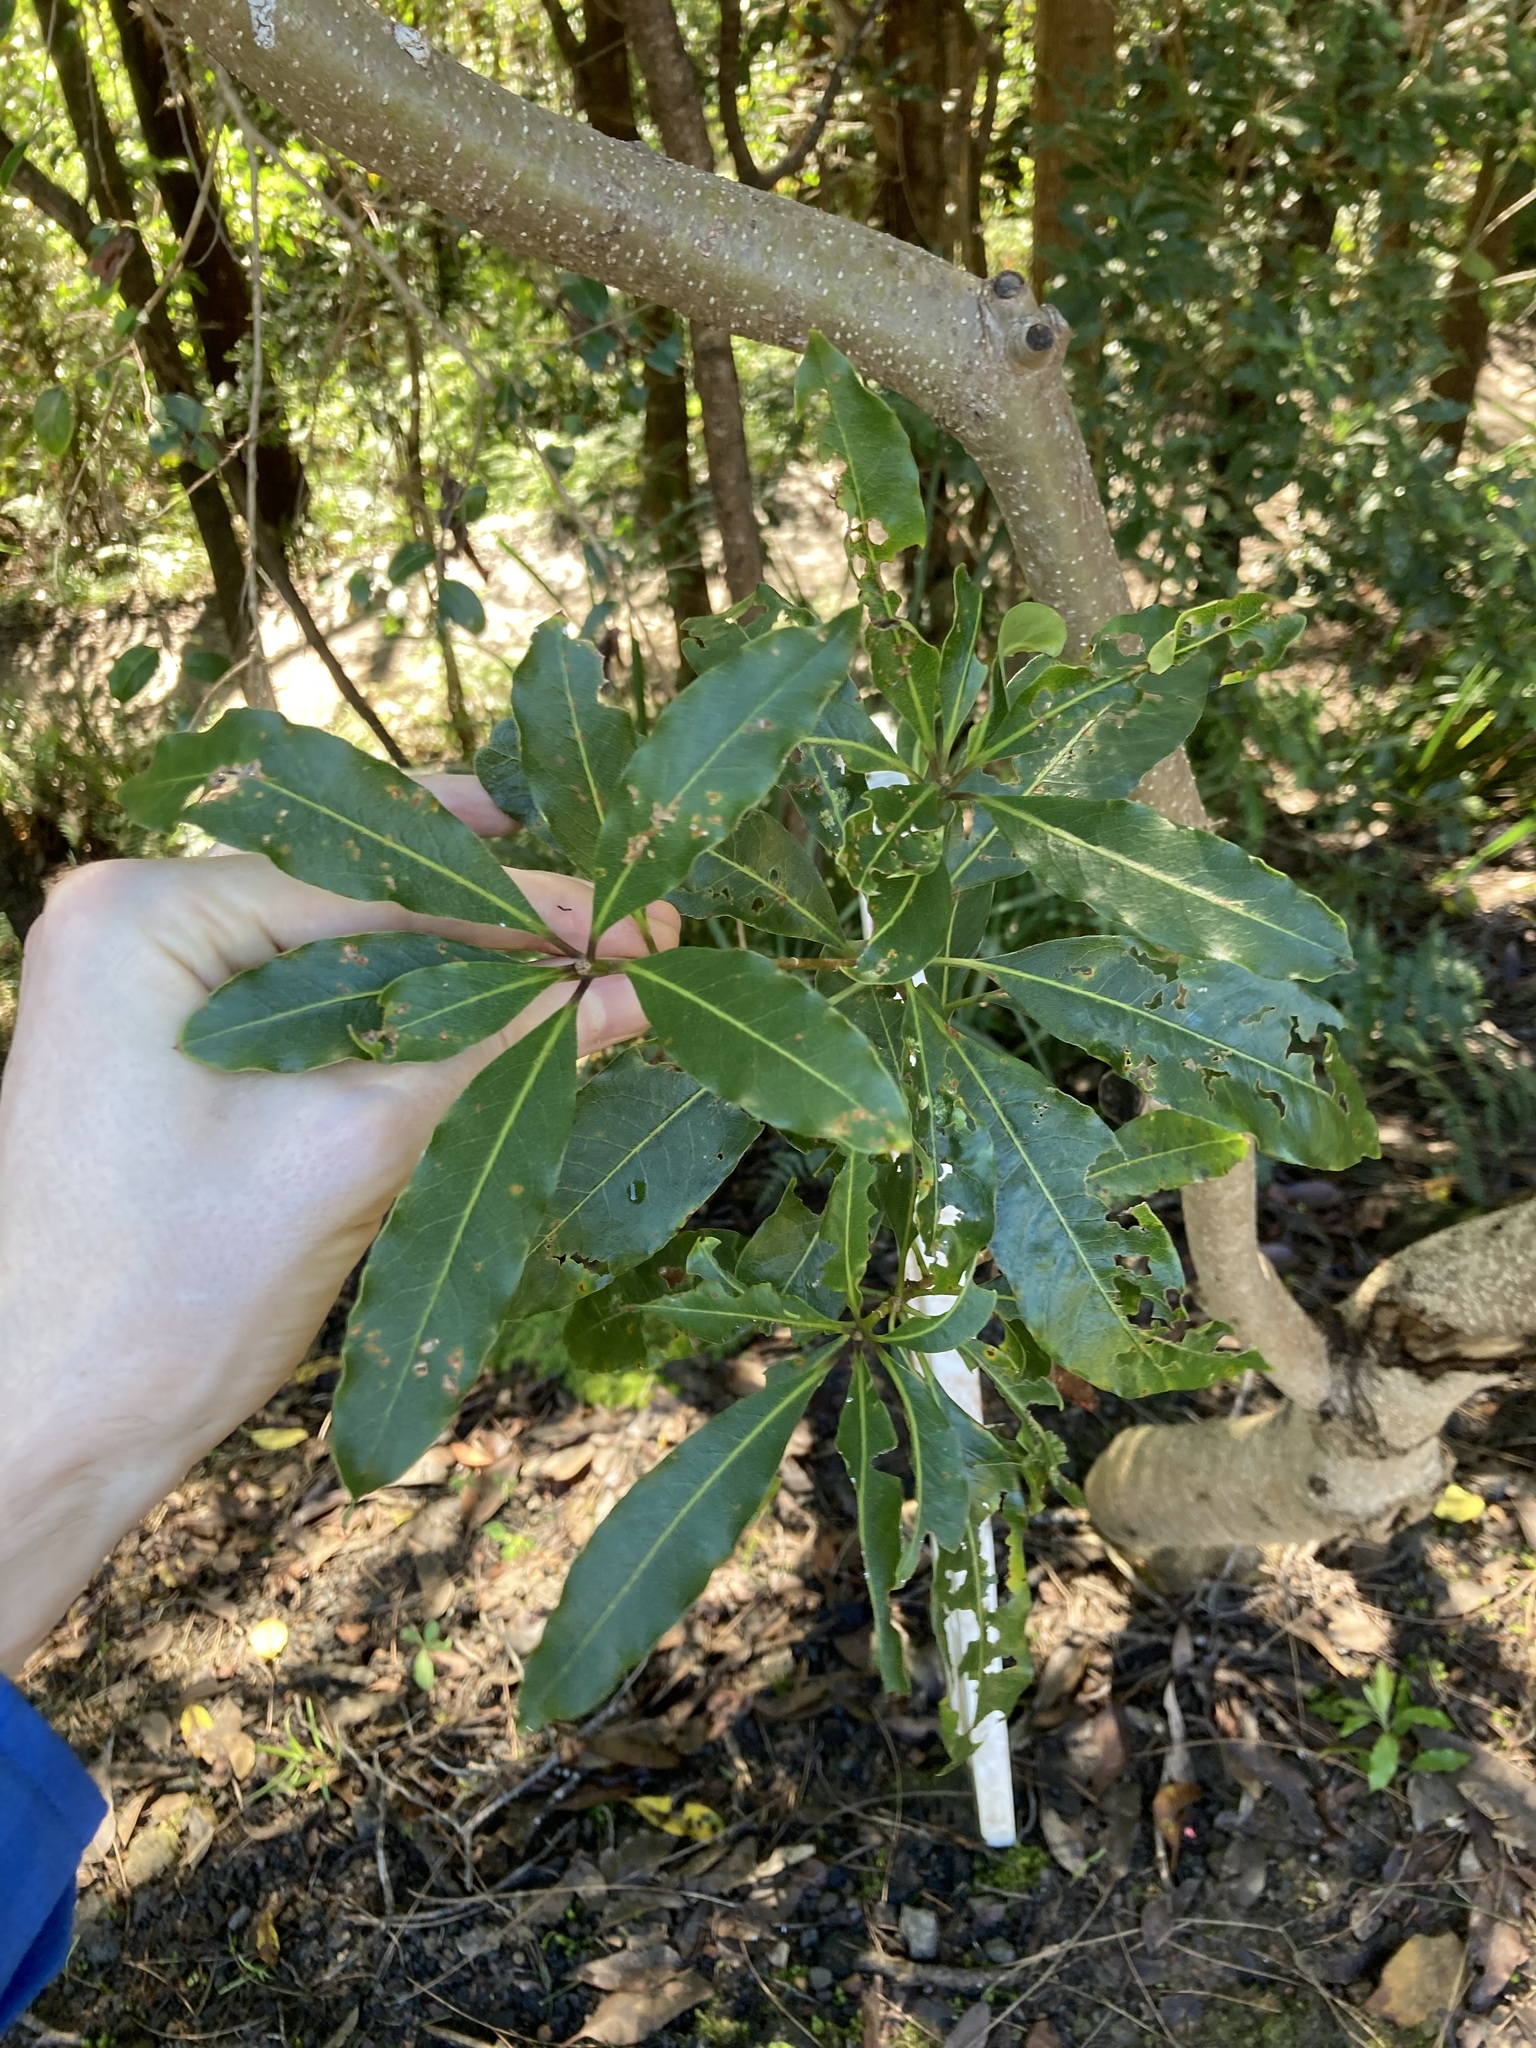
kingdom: Plantae
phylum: Tracheophyta
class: Magnoliopsida
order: Apiales
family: Pittosporaceae
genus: Pittosporum
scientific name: Pittosporum undulatum
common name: Australian cheesewood
